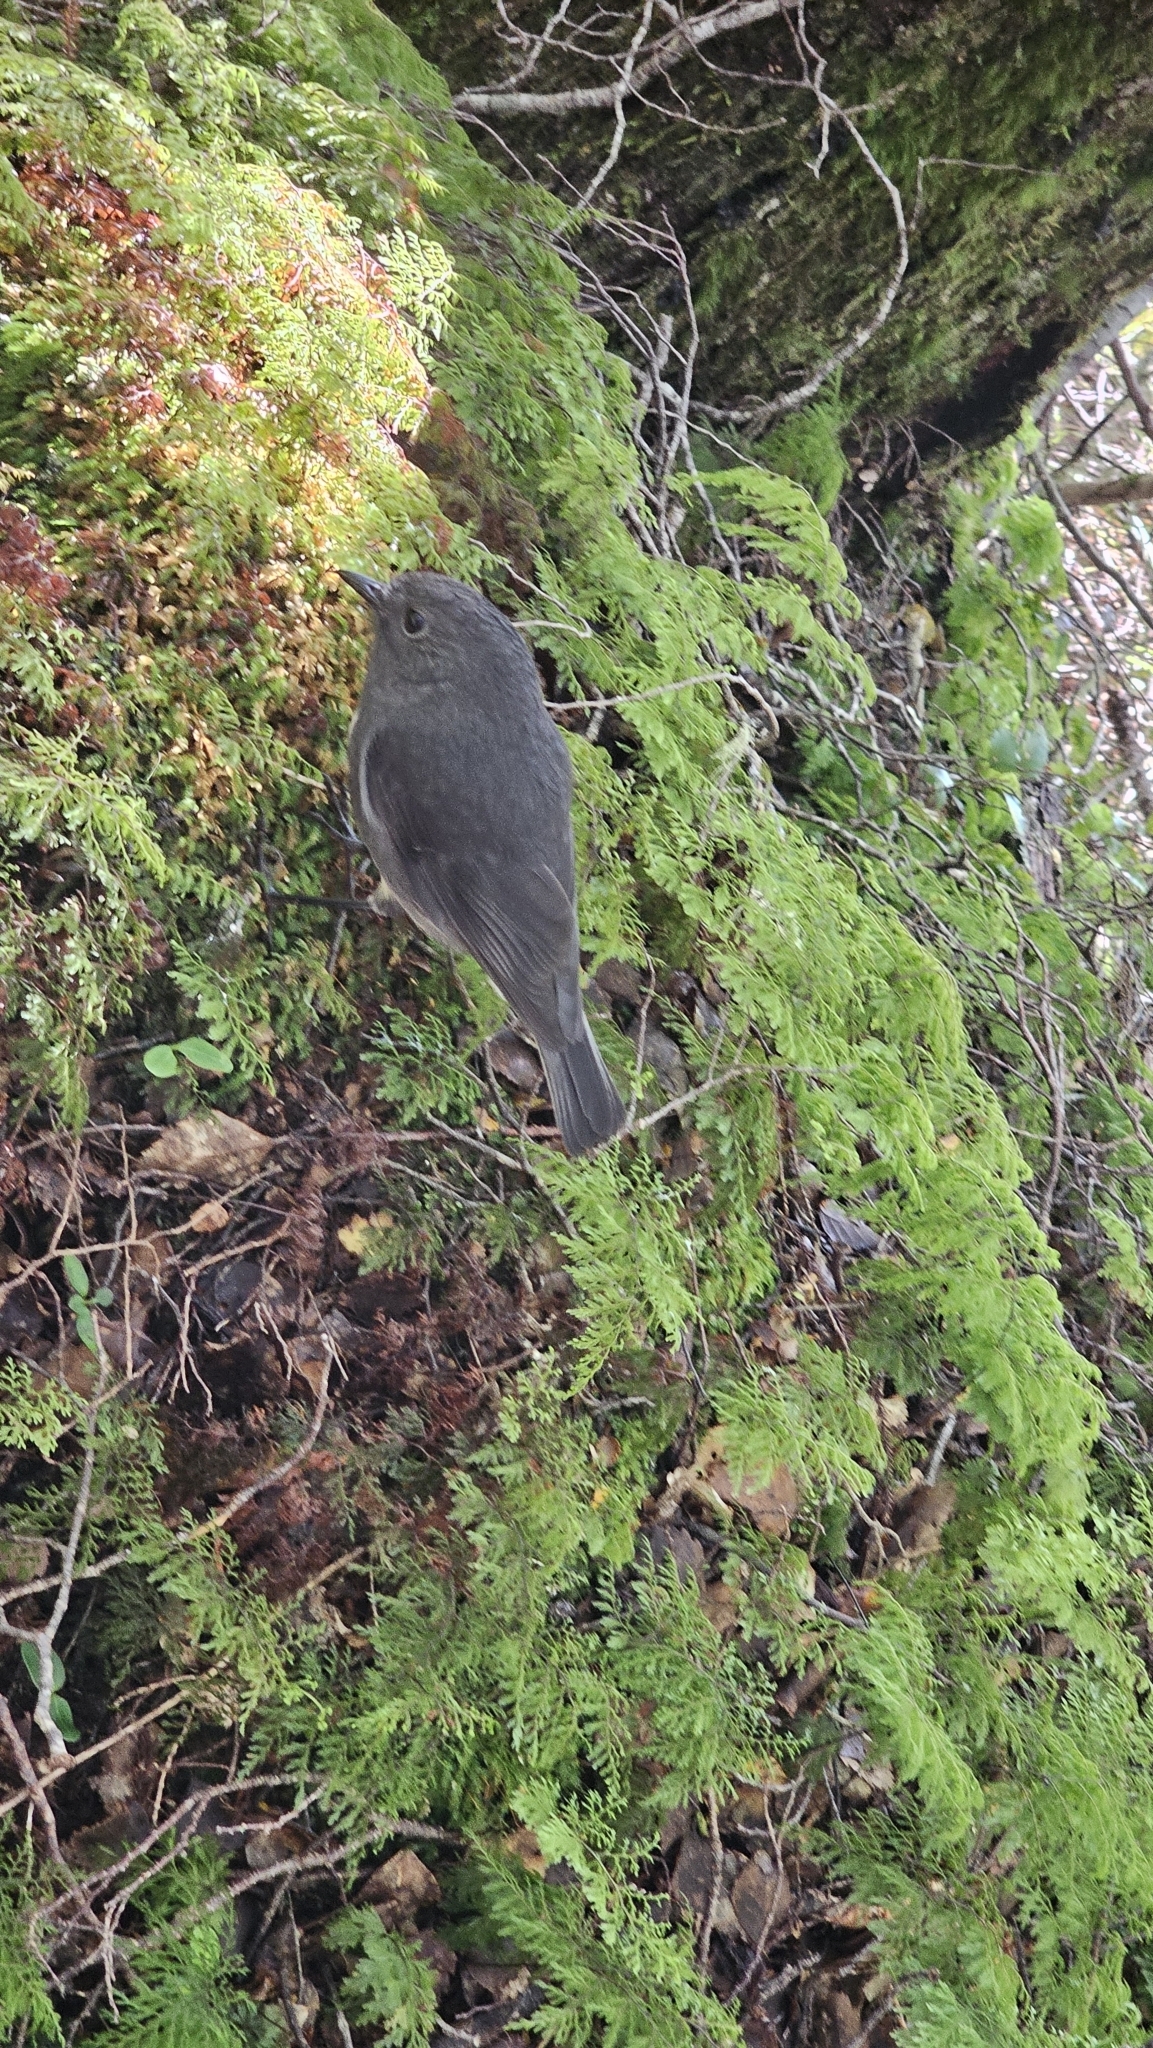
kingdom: Animalia
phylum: Chordata
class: Aves
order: Passeriformes
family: Petroicidae
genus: Petroica
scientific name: Petroica australis
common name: New zealand robin
